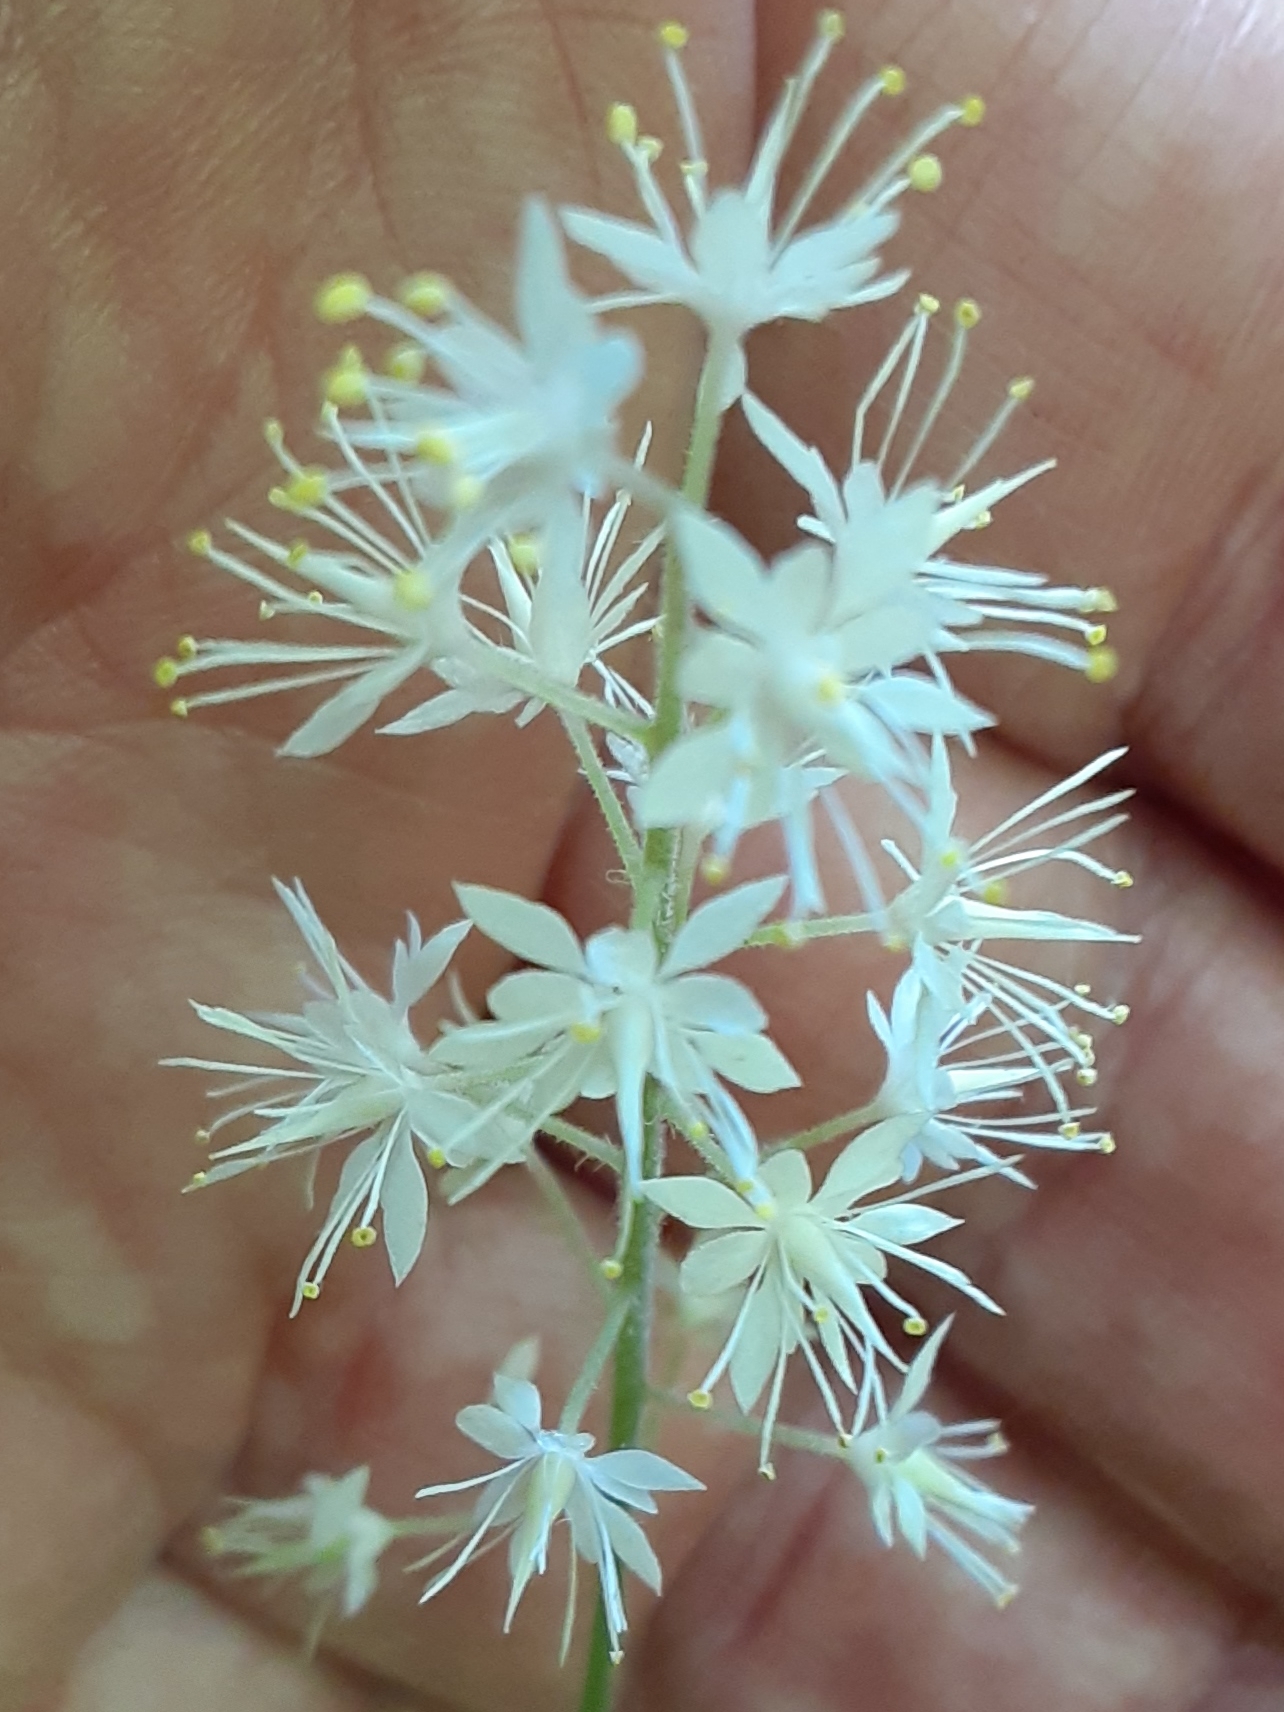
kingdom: Plantae
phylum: Tracheophyta
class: Magnoliopsida
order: Saxifragales
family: Saxifragaceae
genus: Tiarella
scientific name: Tiarella stolonifera
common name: Stoloniferous foamflower
